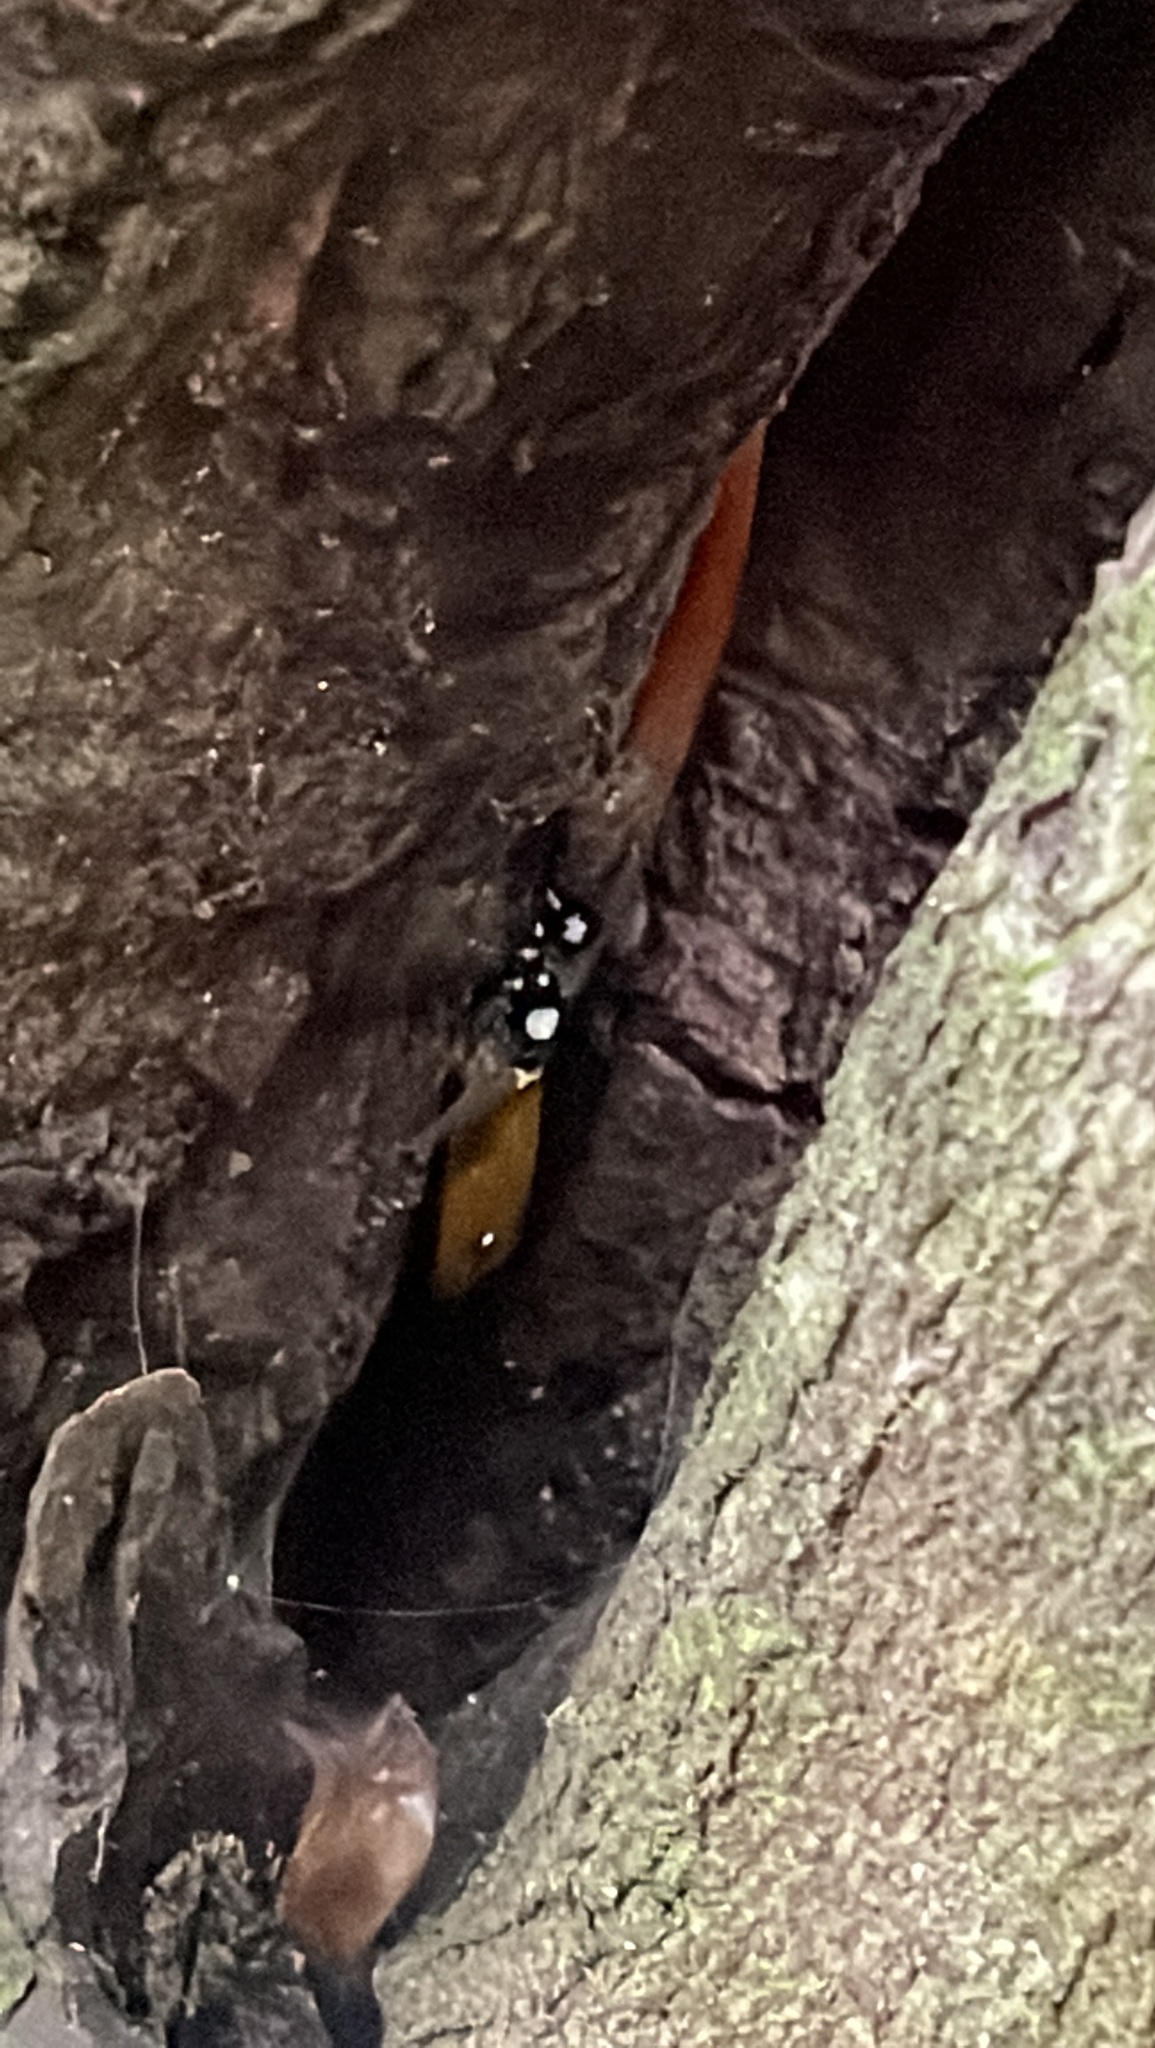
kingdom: Animalia
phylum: Chordata
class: Squamata
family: Sphaerodactylidae
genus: Gonatodes
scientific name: Gonatodes ocellatus
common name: Eyespot gecko
